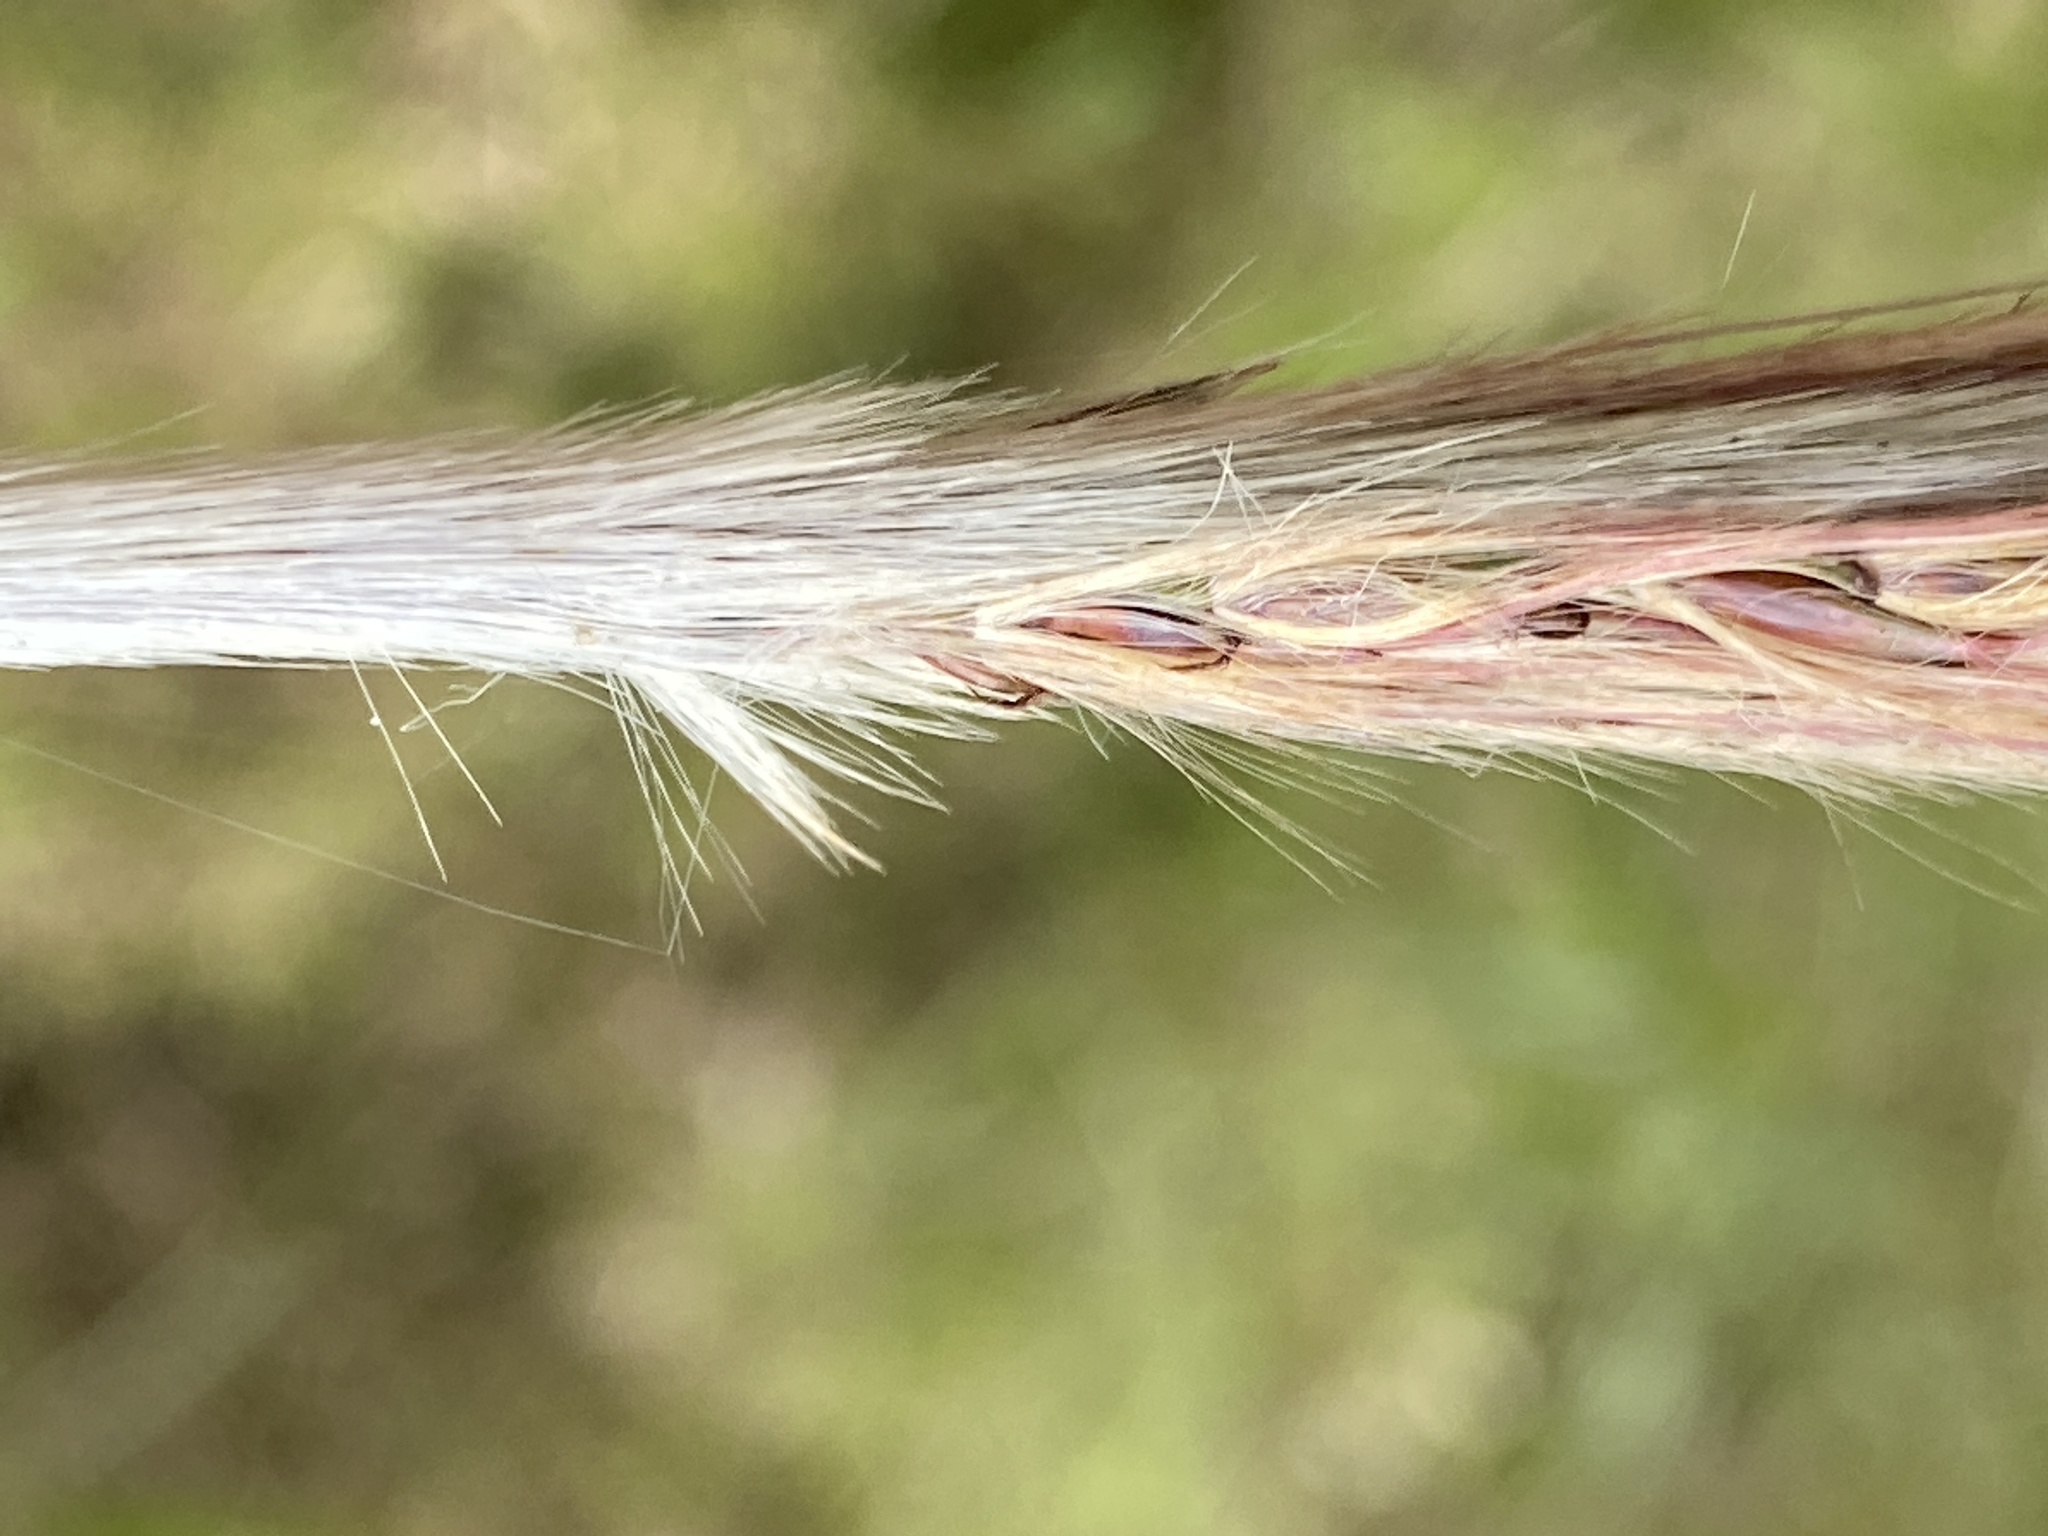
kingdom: Plantae
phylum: Tracheophyta
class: Liliopsida
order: Poales
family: Poaceae
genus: Erianthus
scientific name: Erianthus giganteus
